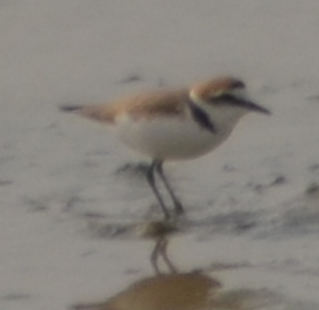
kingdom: Animalia
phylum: Chordata
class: Aves
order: Charadriiformes
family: Charadriidae
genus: Charadrius
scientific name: Charadrius alexandrinus
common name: Kentish plover
